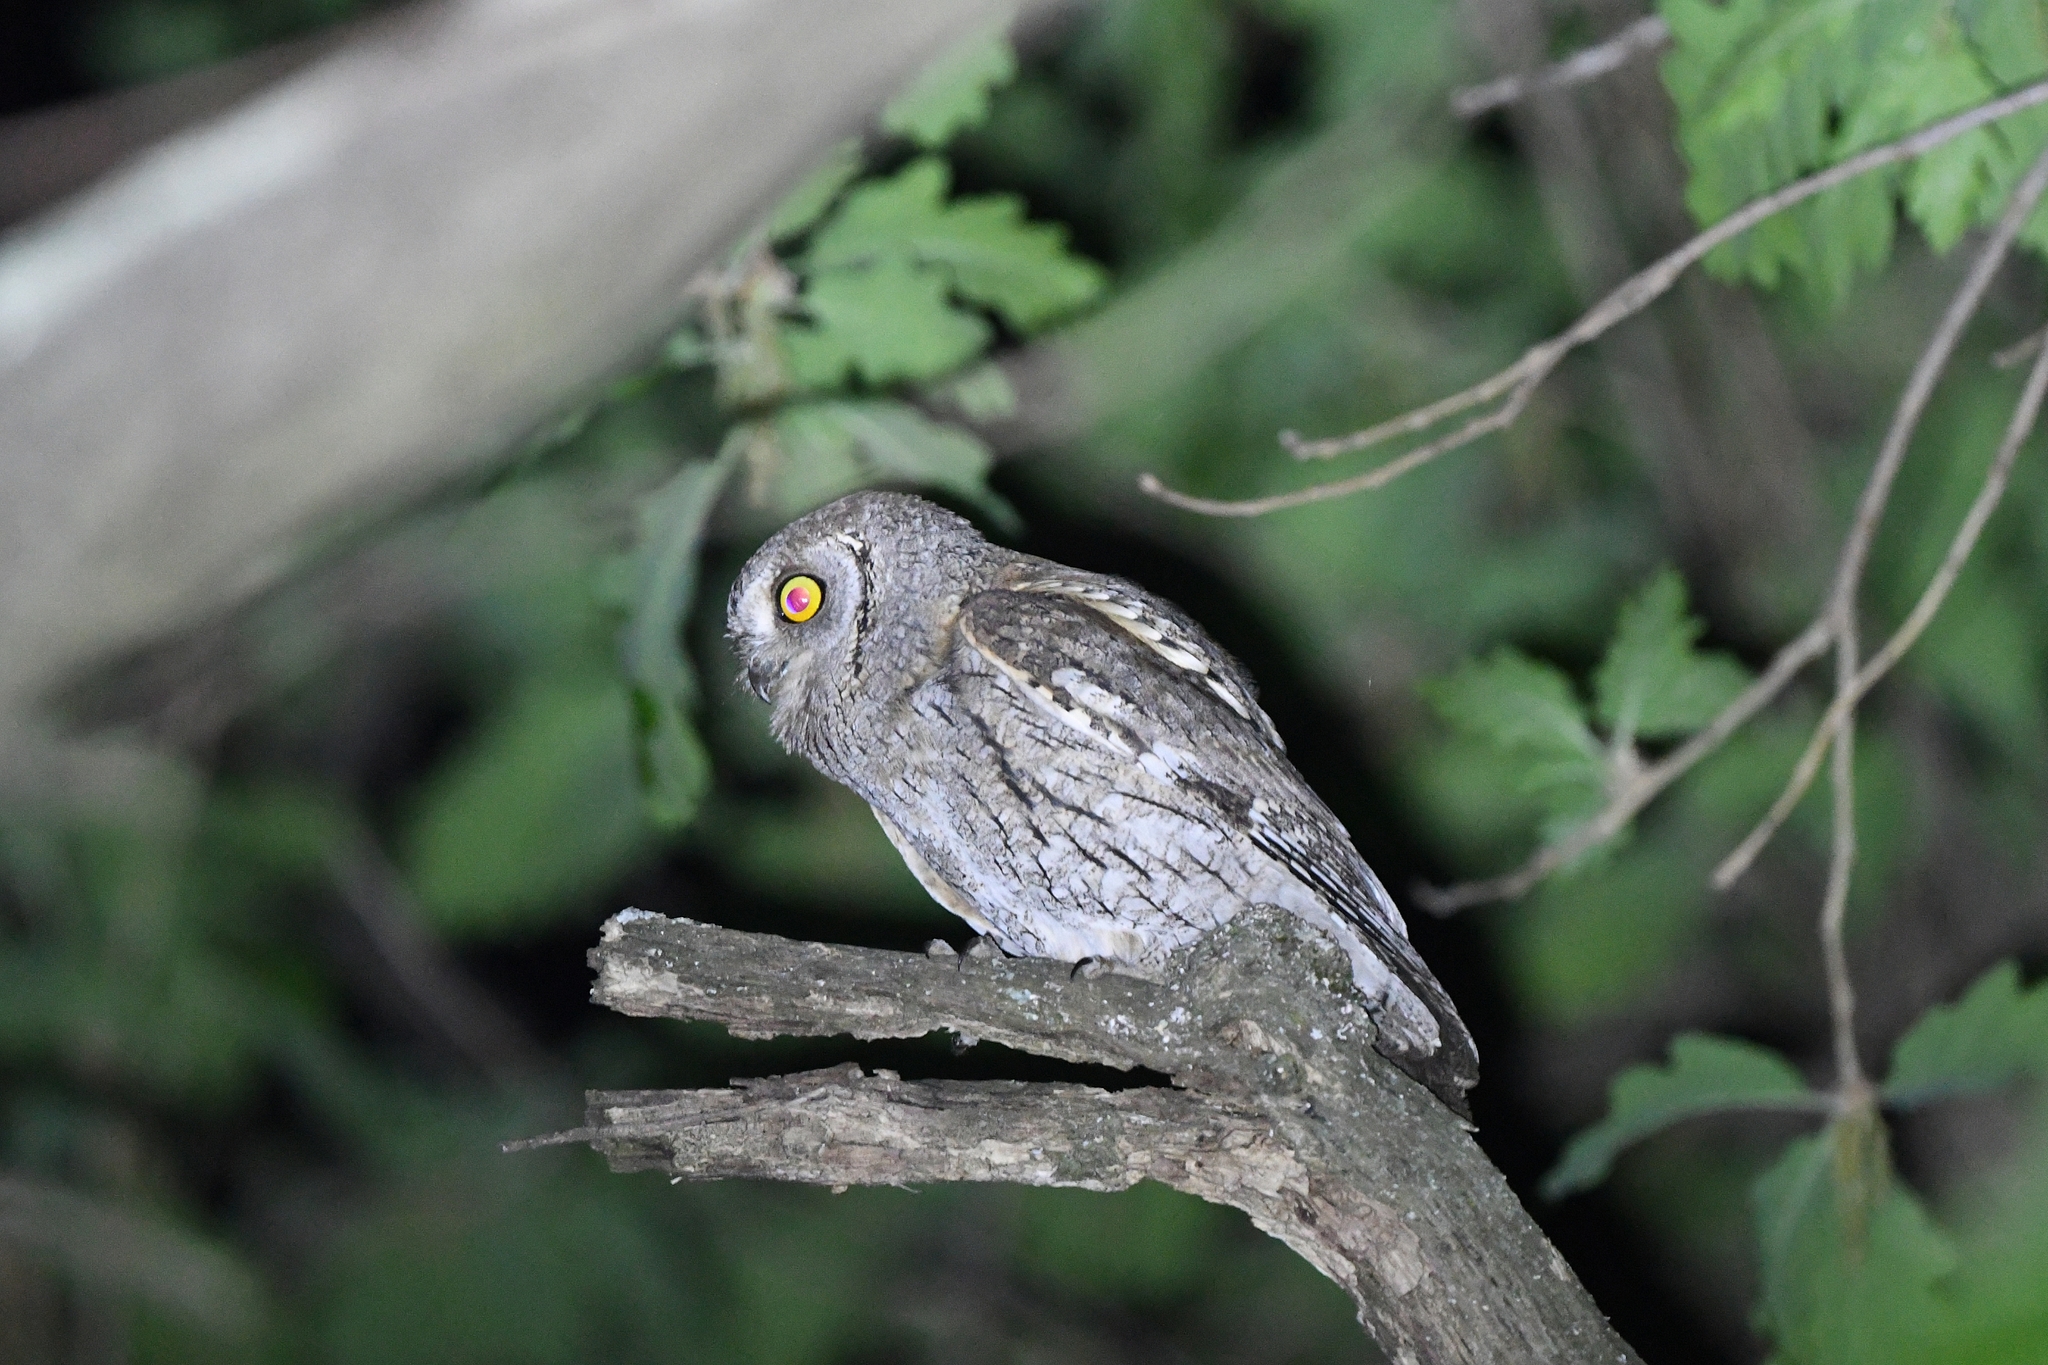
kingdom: Animalia
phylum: Chordata
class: Aves
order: Strigiformes
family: Strigidae
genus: Otus
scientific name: Otus scops
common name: Eurasian scops owl
